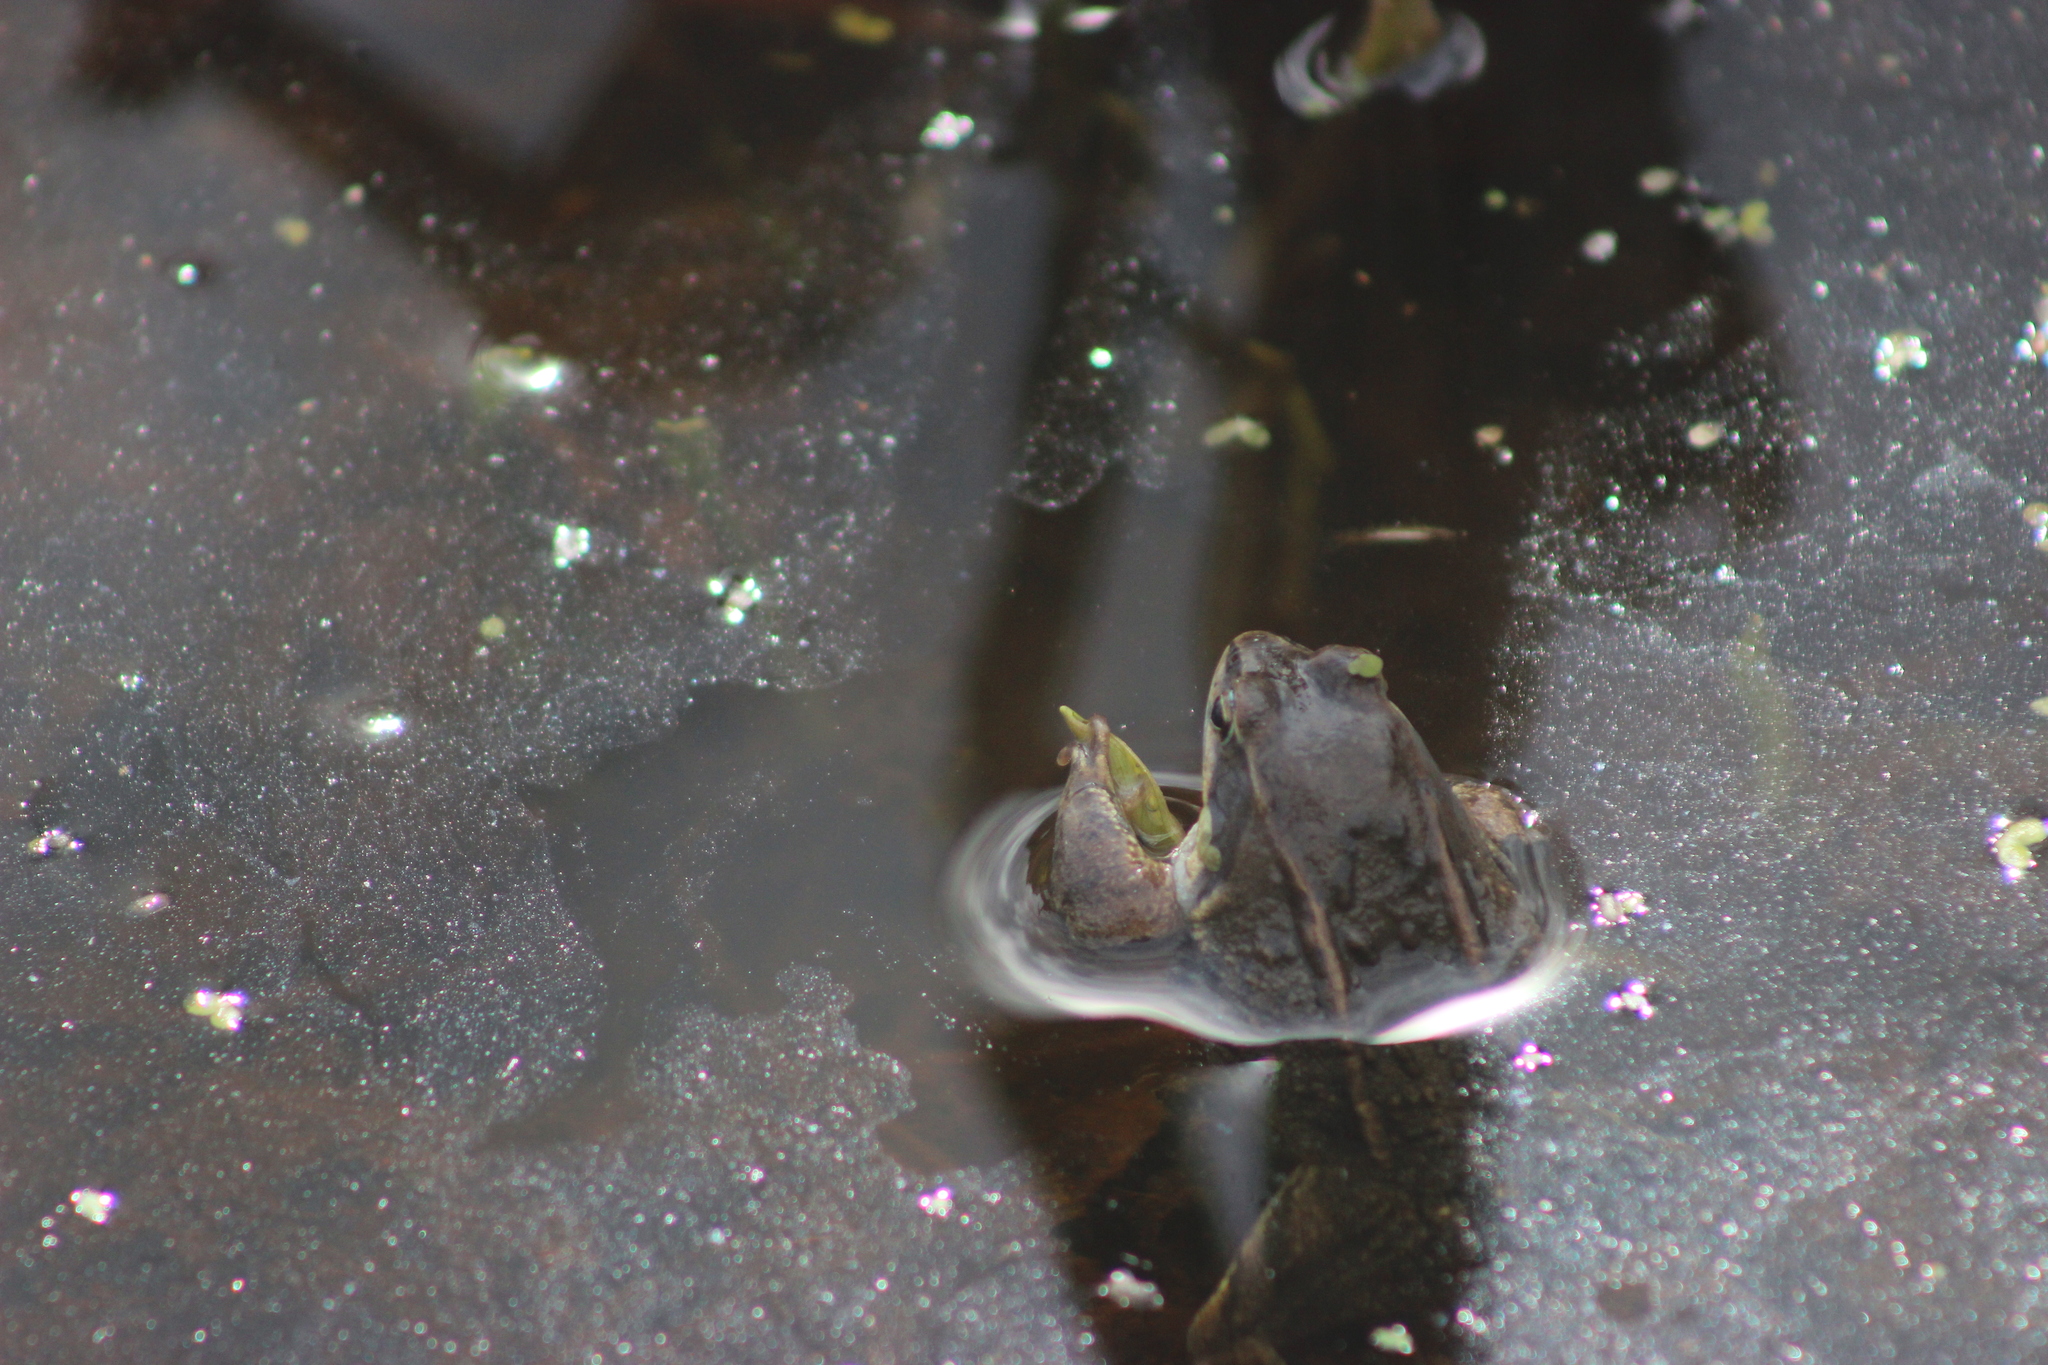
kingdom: Animalia
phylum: Chordata
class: Amphibia
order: Anura
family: Ranidae
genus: Rana
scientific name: Rana arvalis
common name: Moor frog
